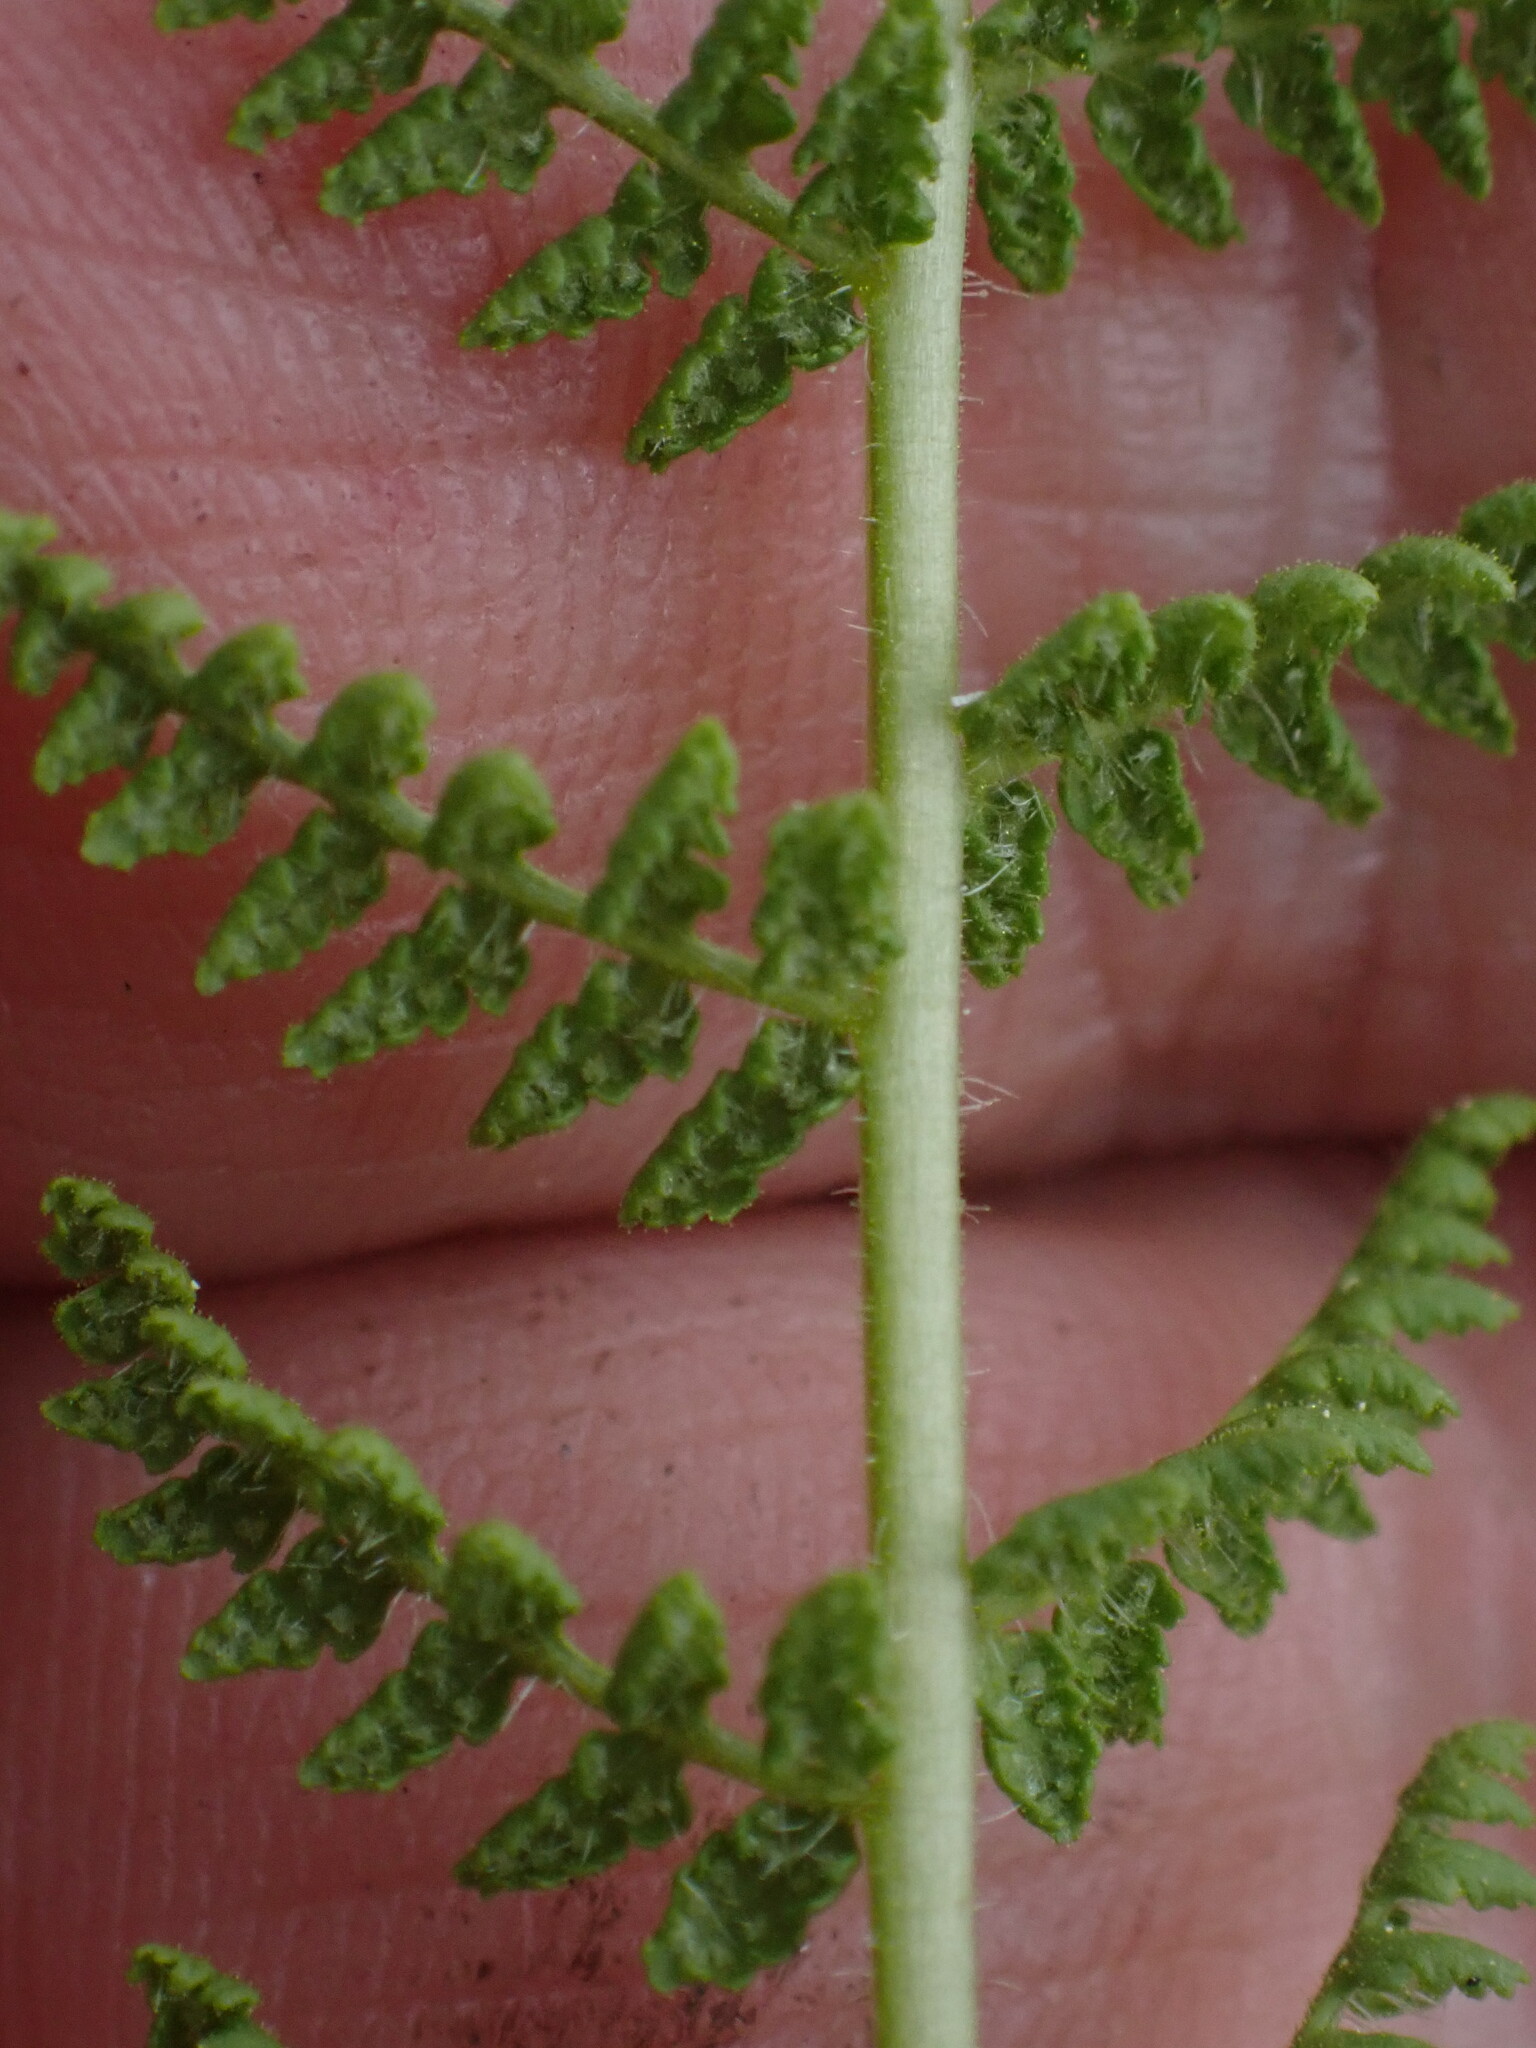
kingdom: Plantae
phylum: Tracheophyta
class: Polypodiopsida
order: Polypodiales
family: Woodsiaceae
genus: Physematium
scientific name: Physematium scopulinum
